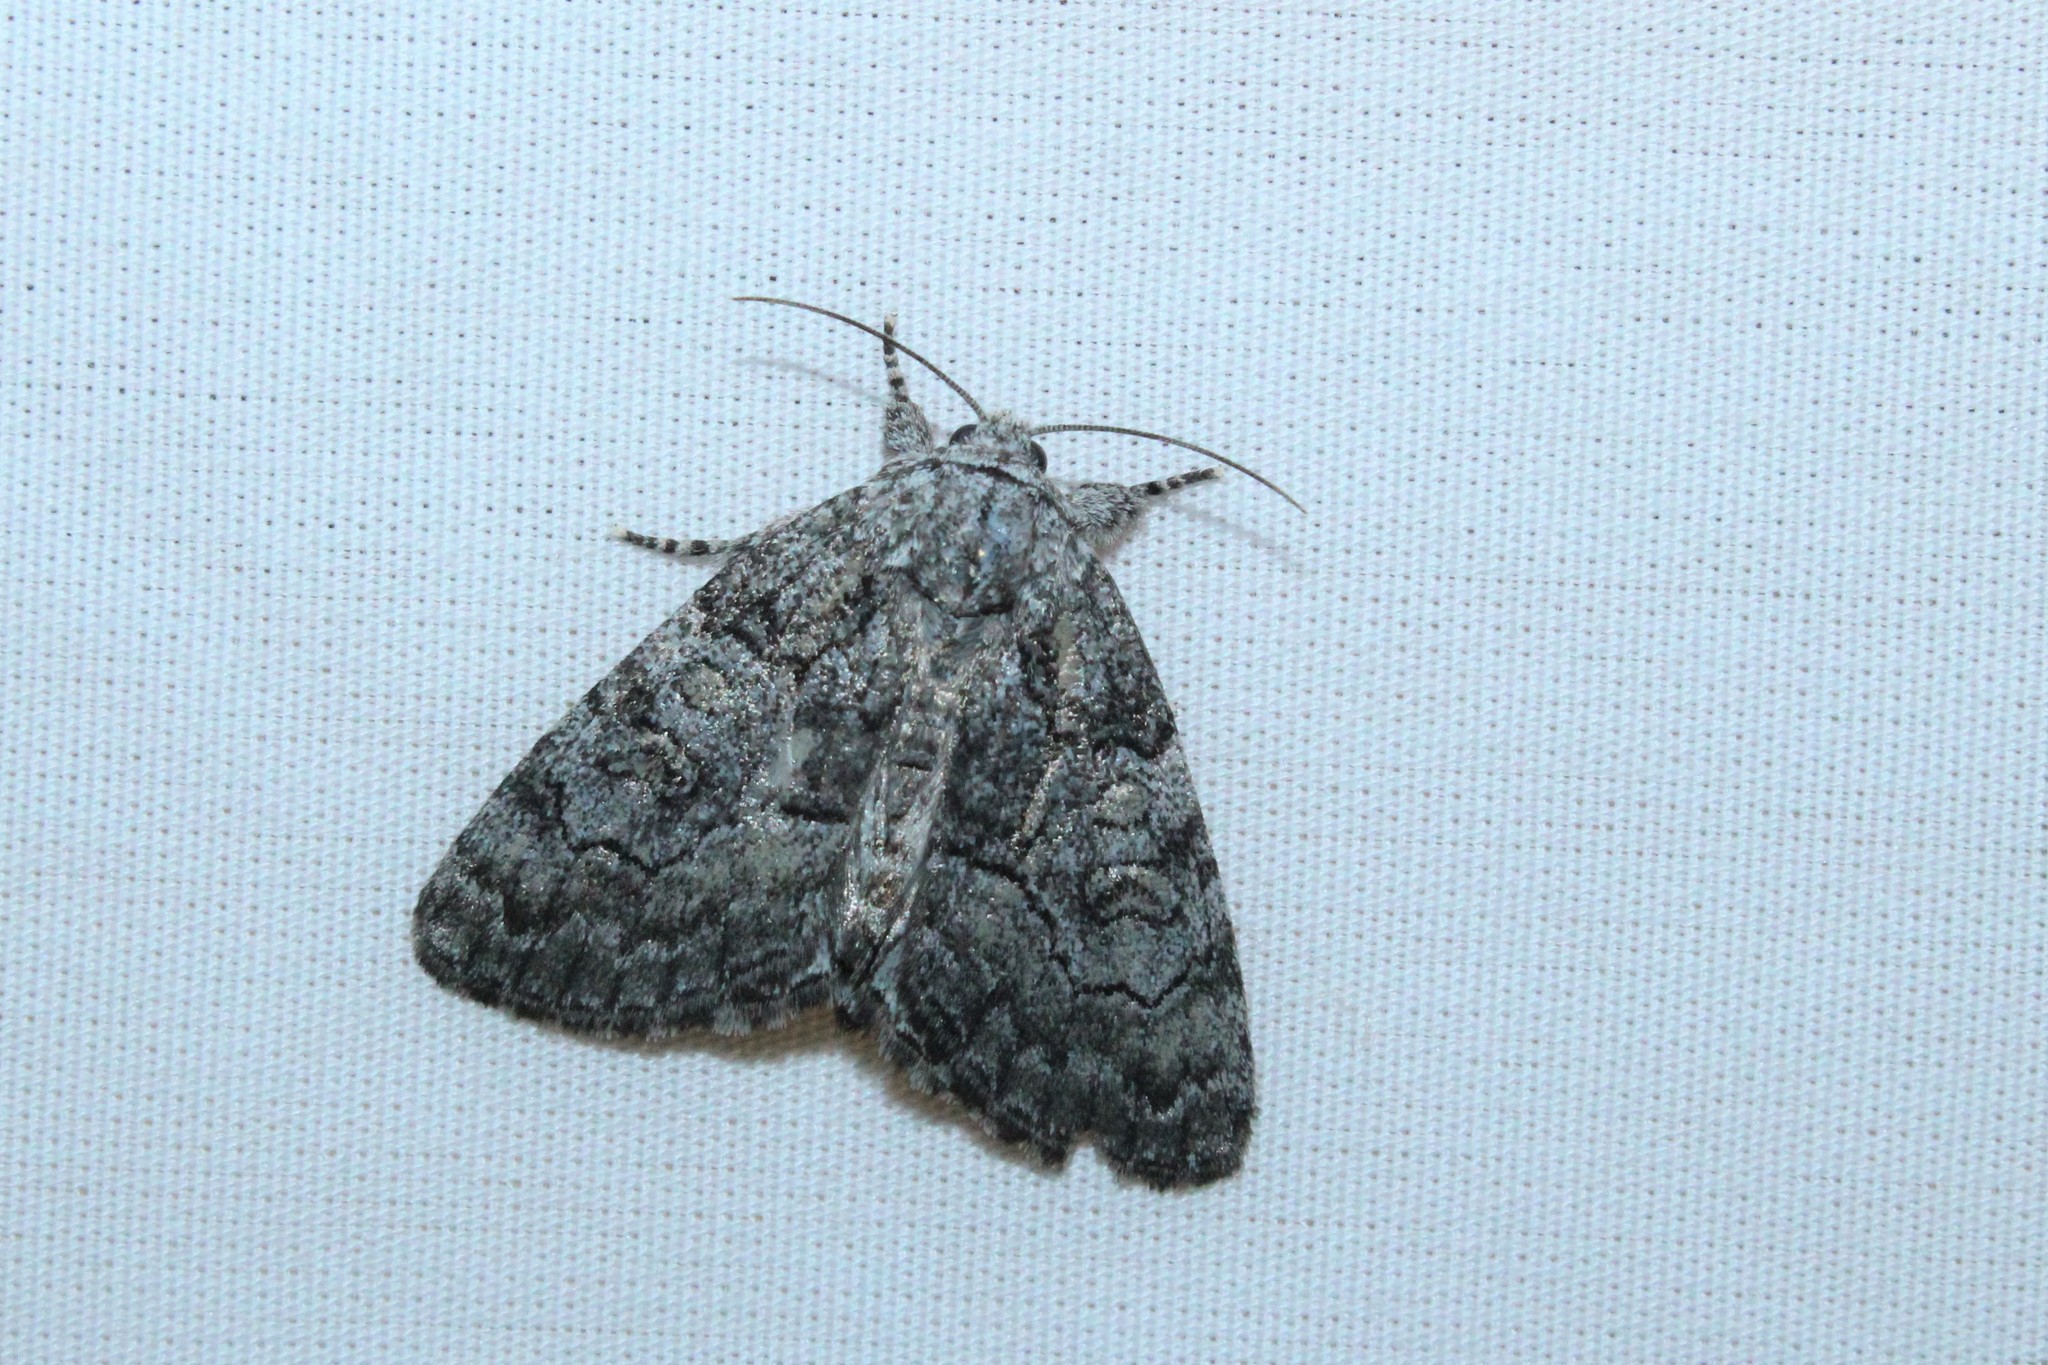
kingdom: Animalia
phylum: Arthropoda
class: Insecta
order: Lepidoptera
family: Noctuidae
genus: Raphia
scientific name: Raphia frater
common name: Brother
